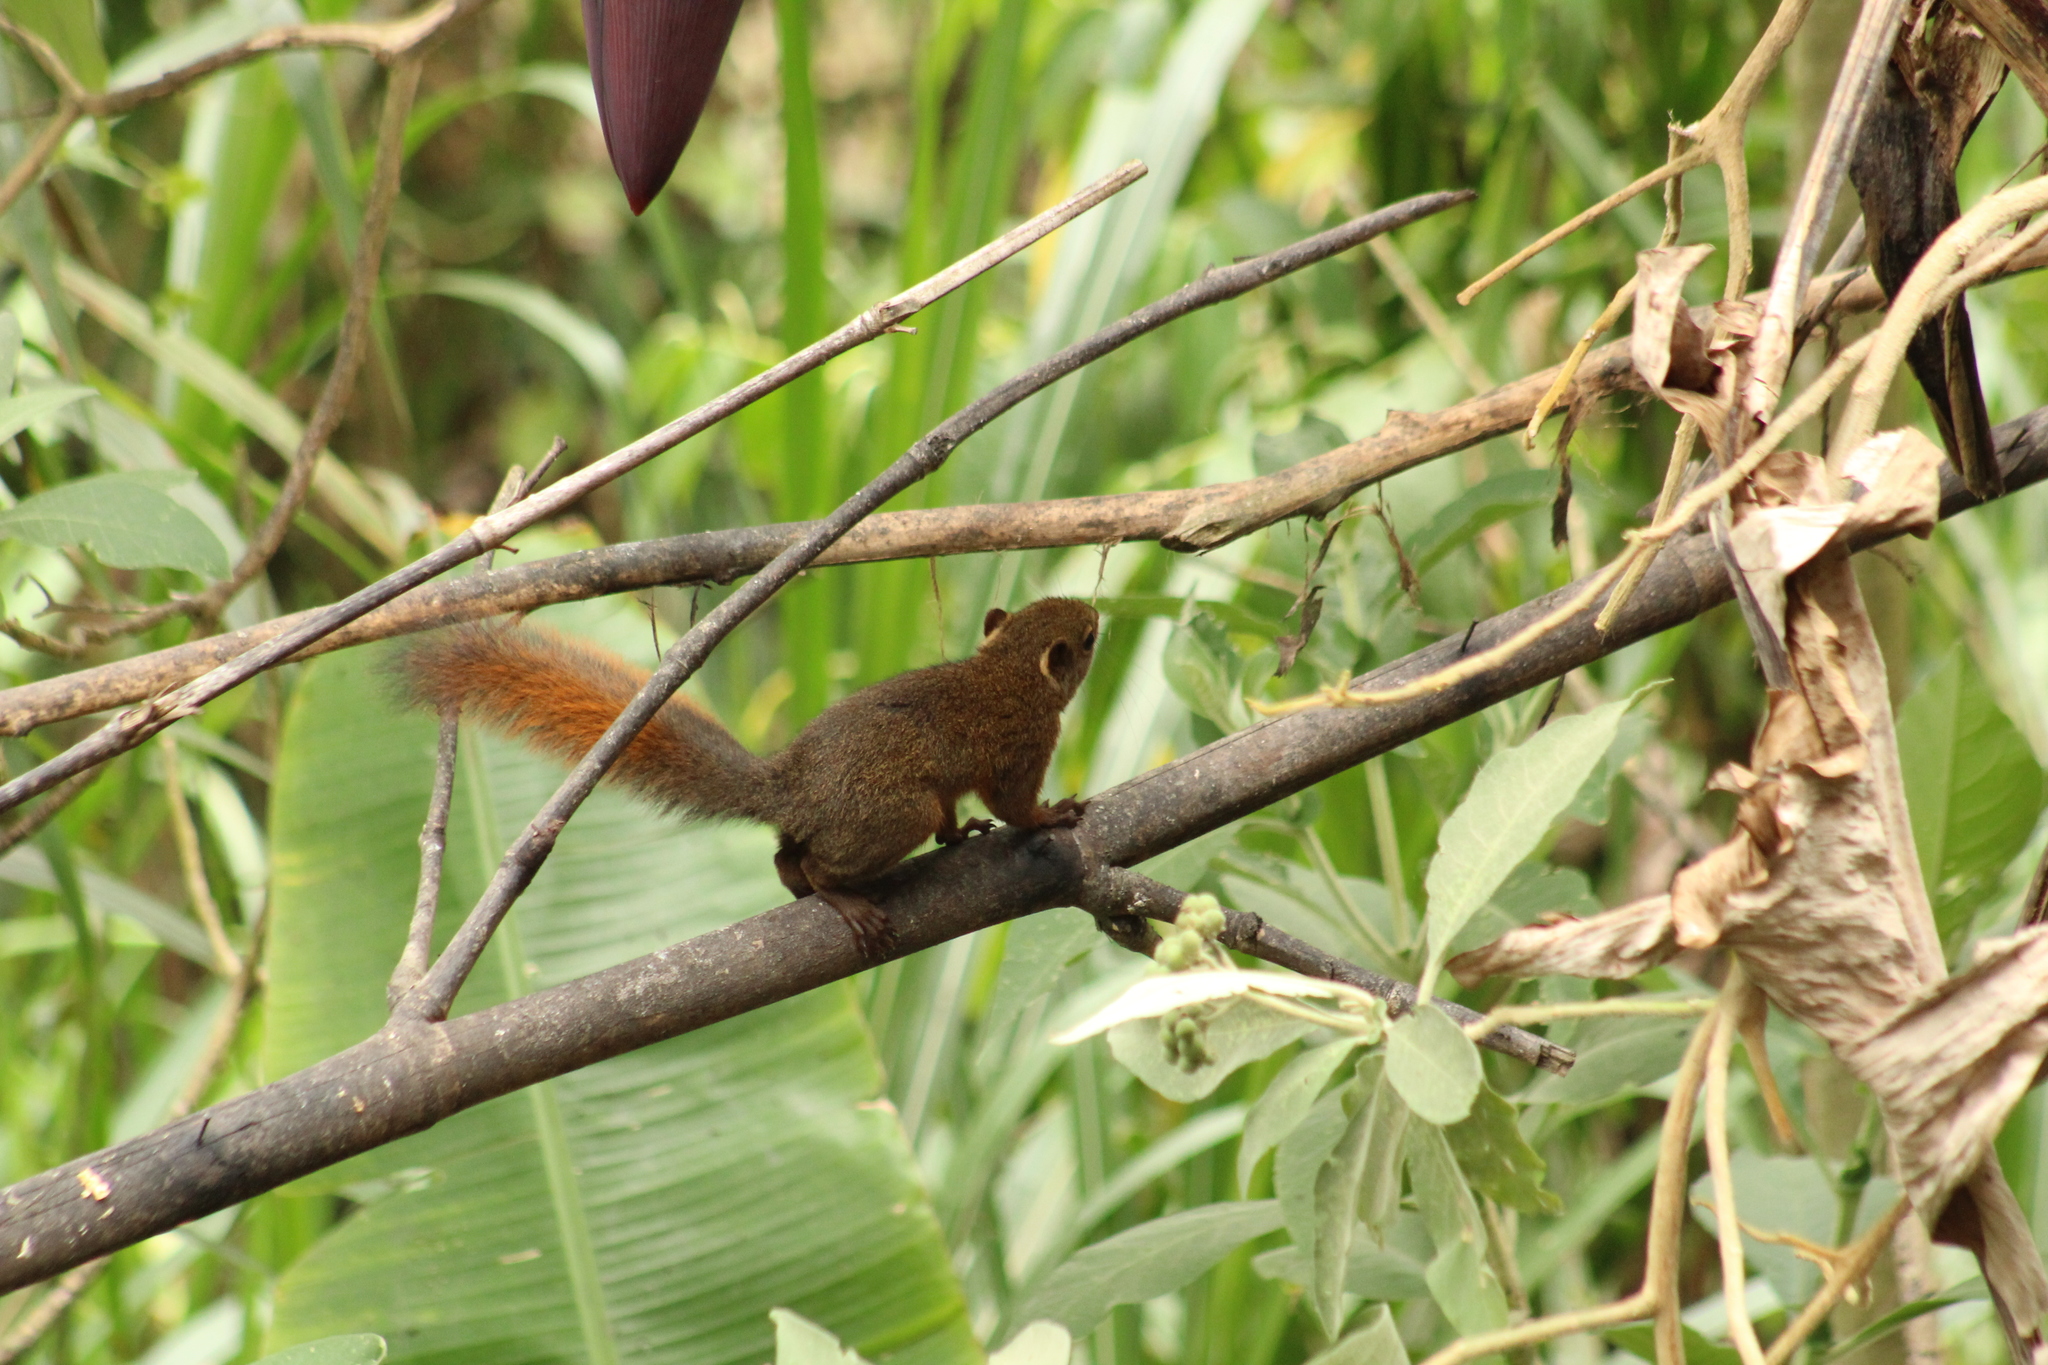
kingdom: Animalia
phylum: Chordata
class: Mammalia
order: Rodentia
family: Sciuridae
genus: Sciurus
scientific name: Sciurus granatensis
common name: Red-tailed squirrel
